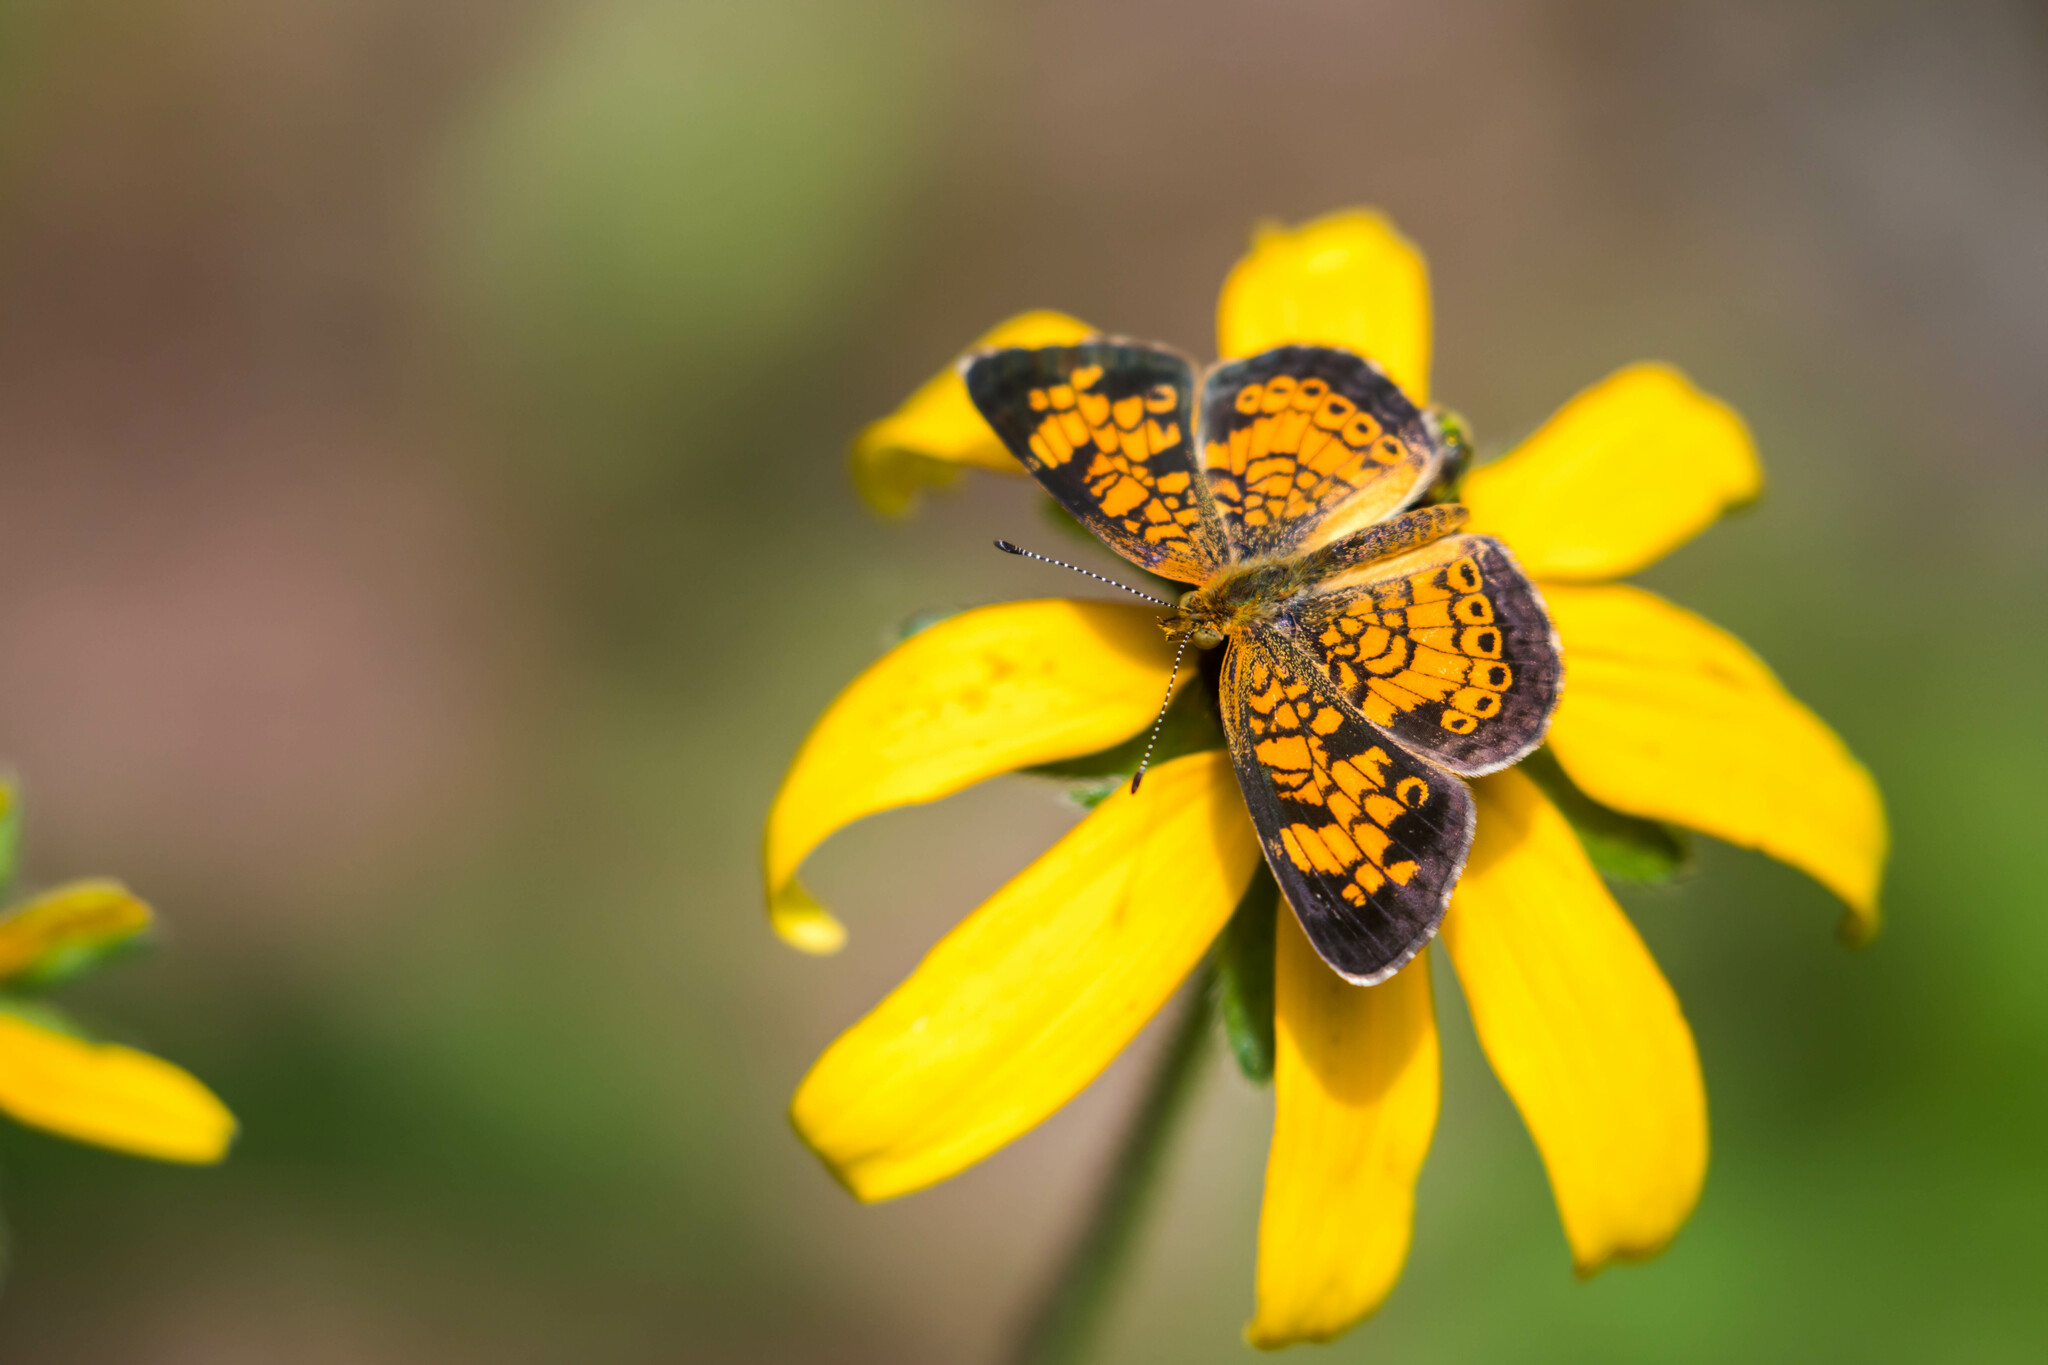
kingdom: Animalia
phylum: Arthropoda
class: Insecta
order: Lepidoptera
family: Nymphalidae
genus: Phyciodes
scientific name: Phyciodes tharos
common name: Pearl crescent
